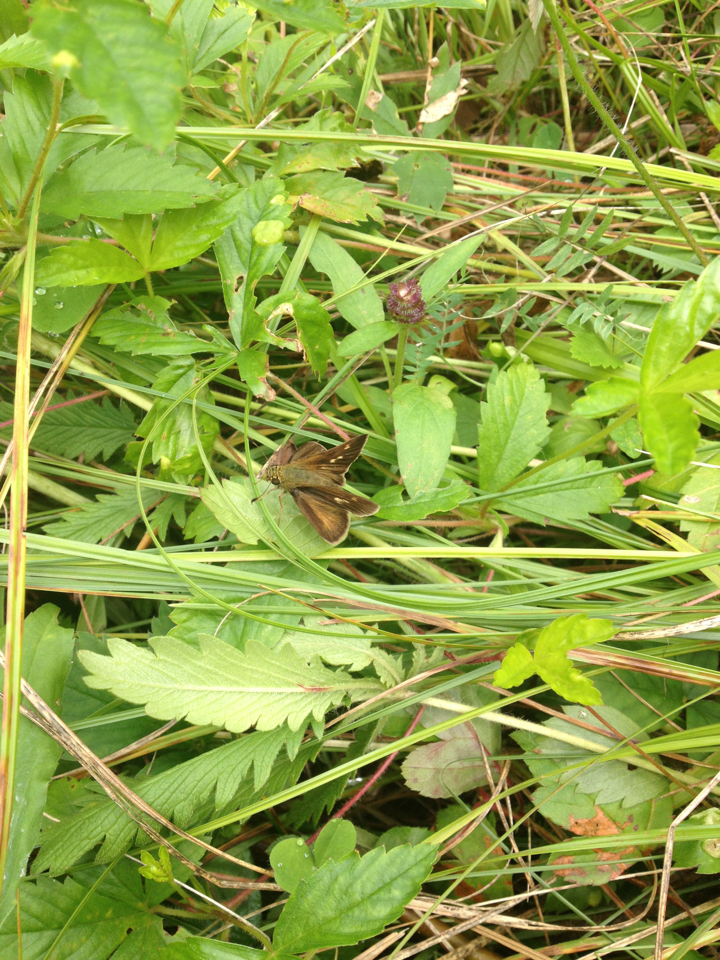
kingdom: Animalia
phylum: Arthropoda
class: Insecta
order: Lepidoptera
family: Hesperiidae
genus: Polites
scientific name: Polites egeremet
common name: Northern broken-dash
